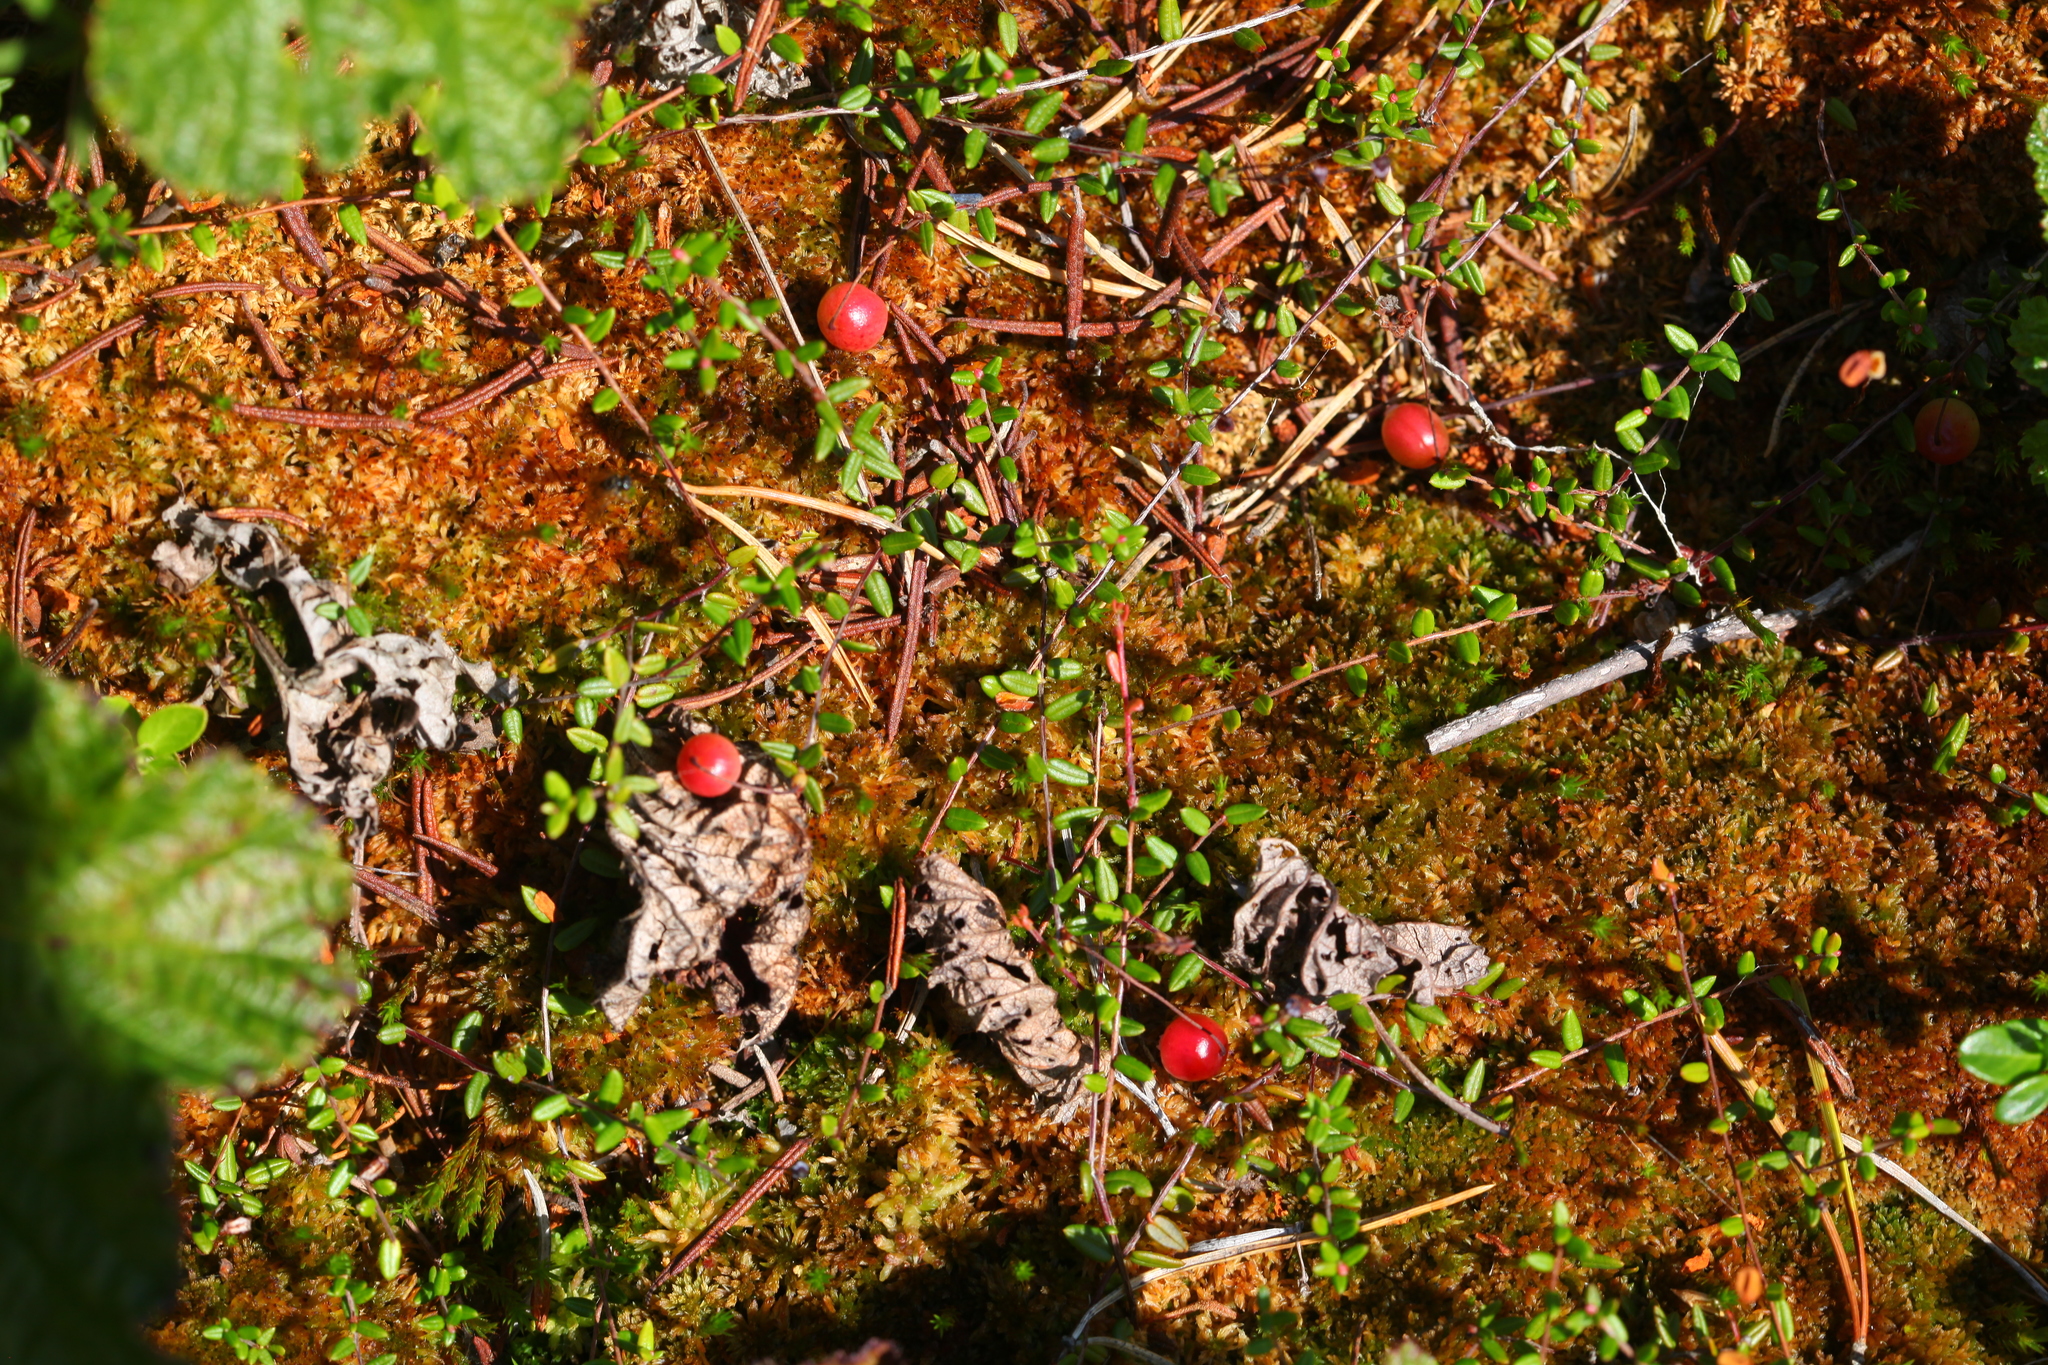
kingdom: Plantae
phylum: Tracheophyta
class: Magnoliopsida
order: Ericales
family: Ericaceae
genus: Vaccinium
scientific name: Vaccinium oxycoccos
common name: Cranberry
